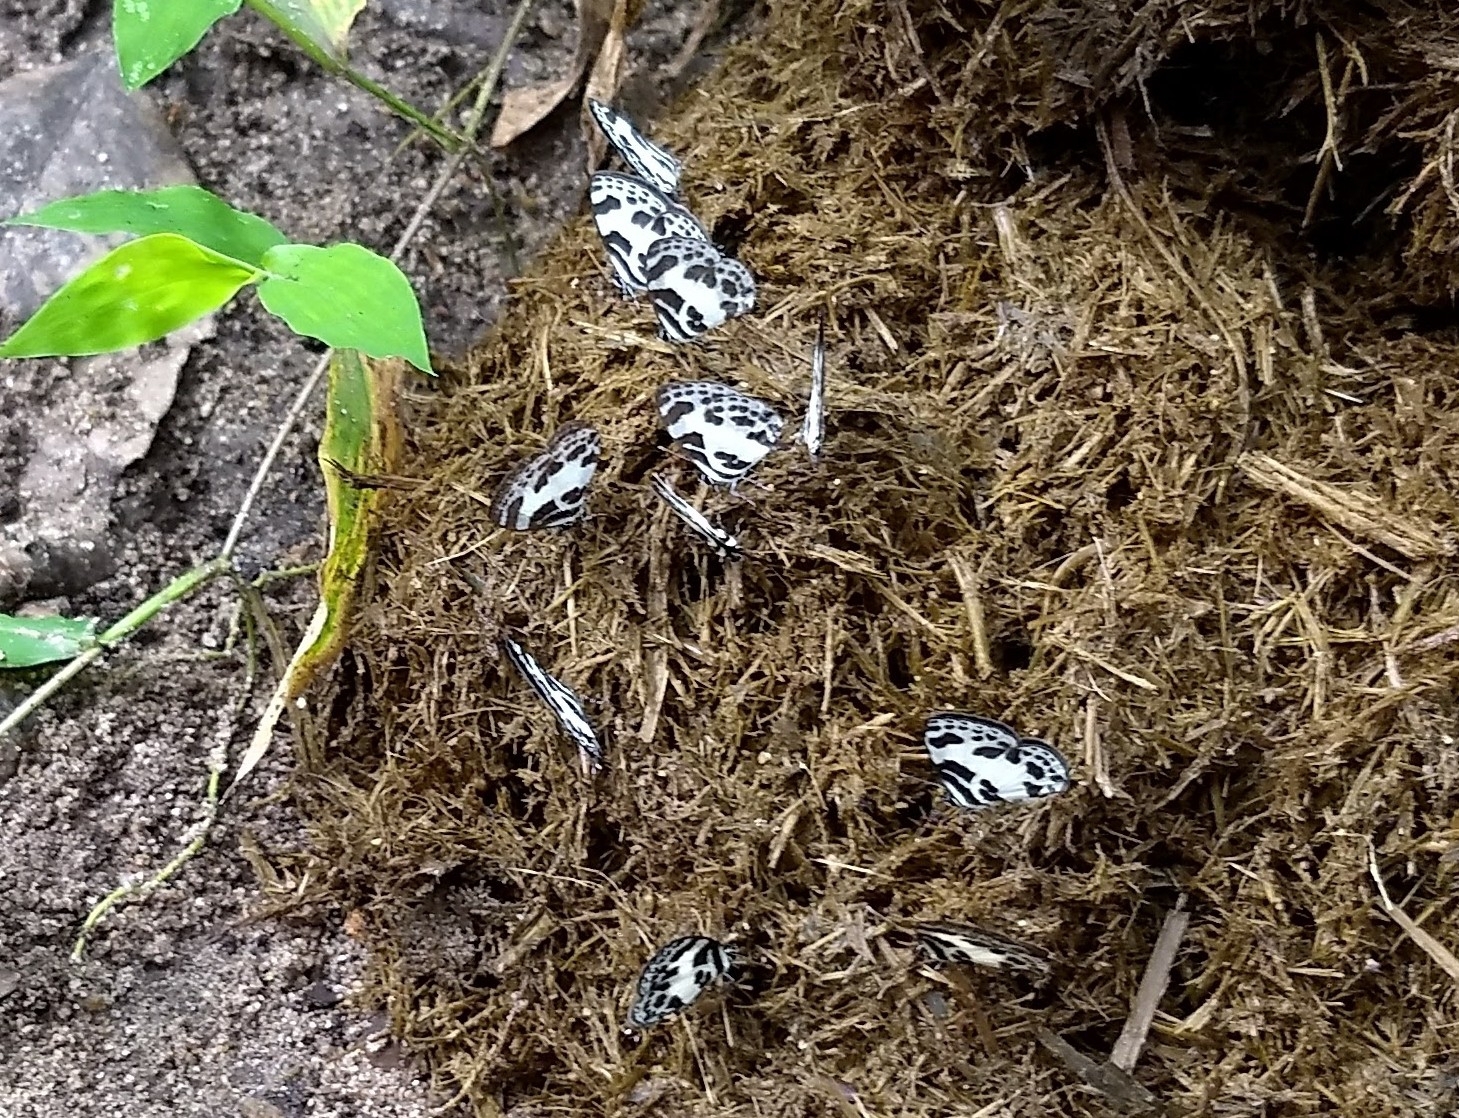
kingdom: Animalia
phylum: Arthropoda
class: Insecta
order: Lepidoptera
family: Lycaenidae
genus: Discolampa
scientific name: Discolampa ethion
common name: Banded blue pierrot
